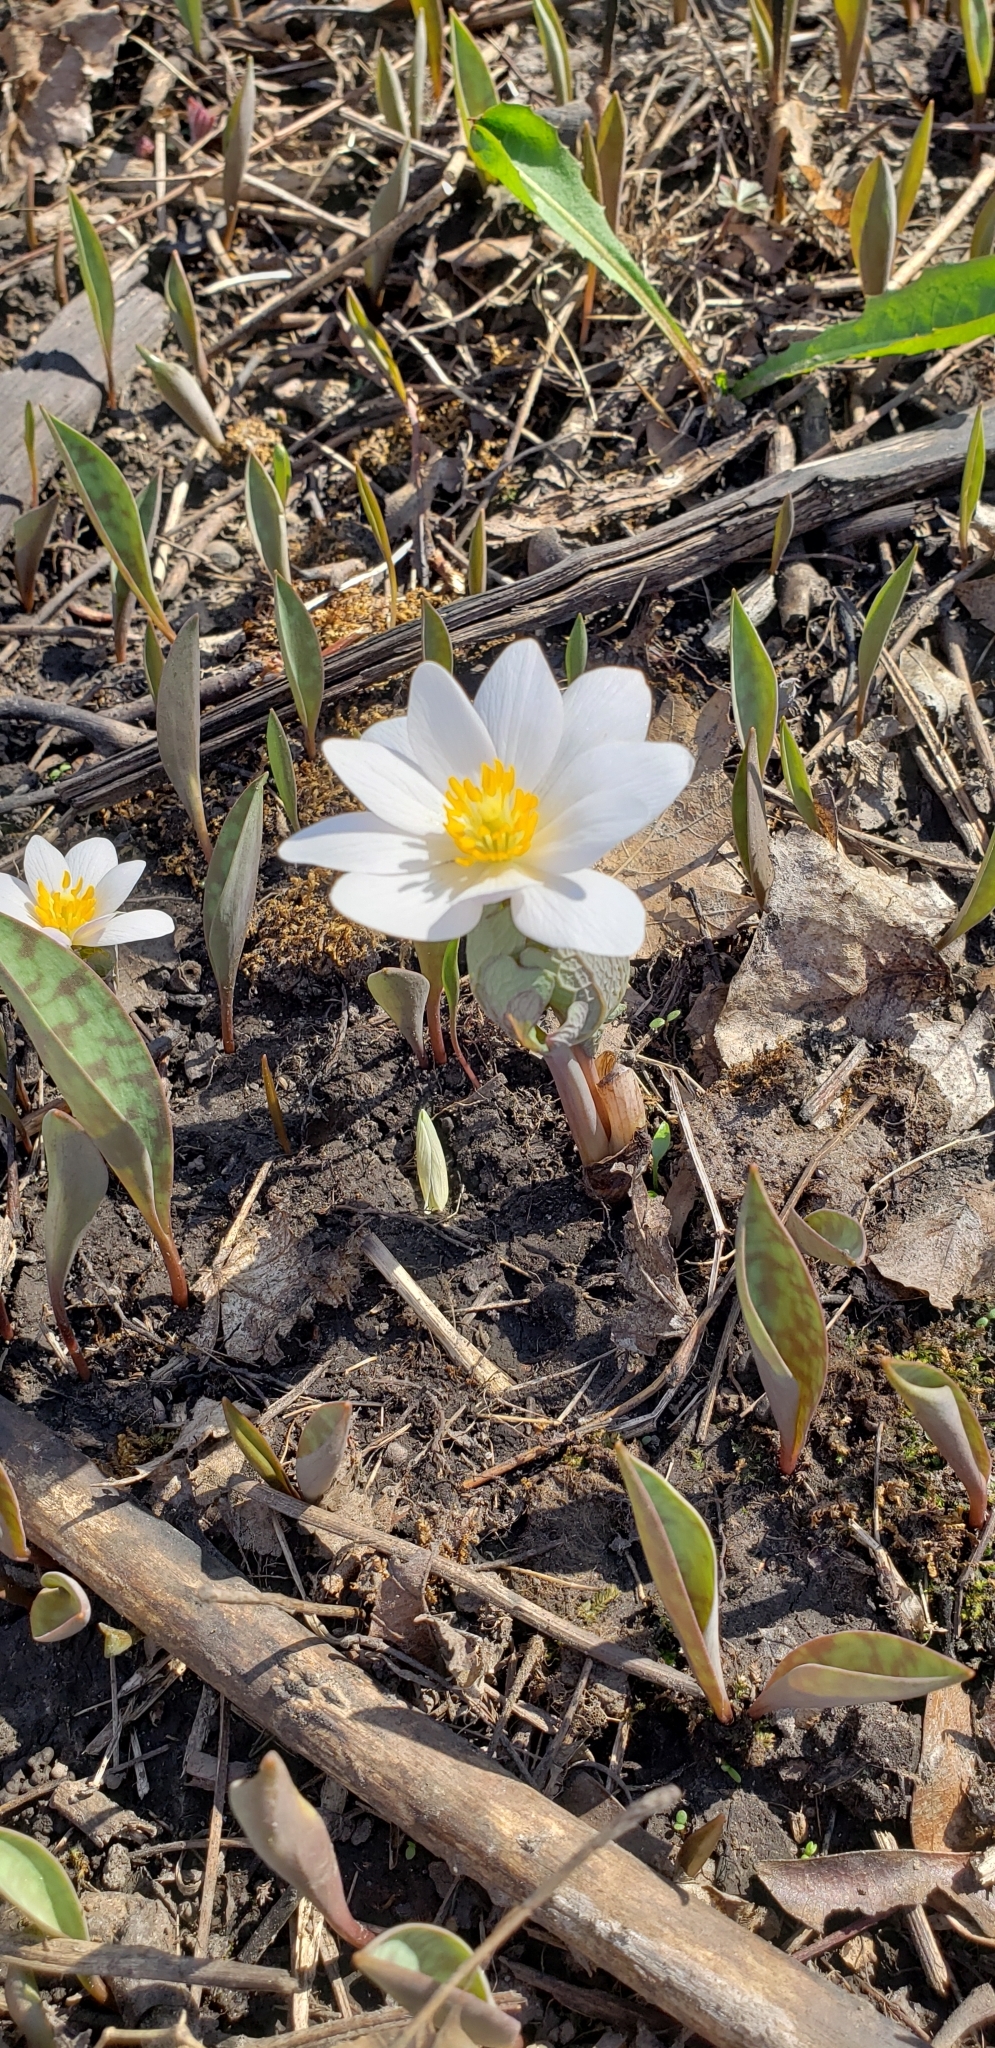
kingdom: Plantae
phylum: Tracheophyta
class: Magnoliopsida
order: Ranunculales
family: Papaveraceae
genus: Sanguinaria
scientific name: Sanguinaria canadensis
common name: Bloodroot
